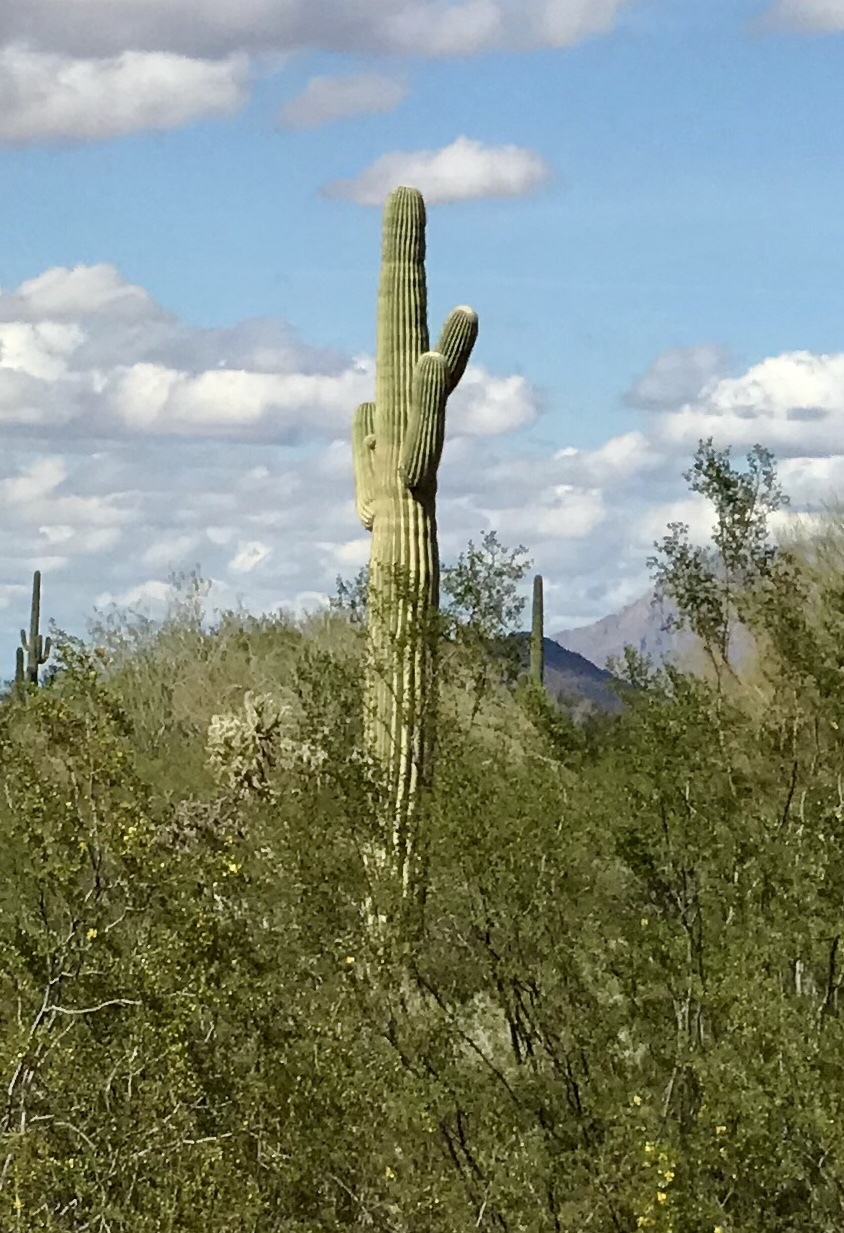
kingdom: Plantae
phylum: Tracheophyta
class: Magnoliopsida
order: Caryophyllales
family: Cactaceae
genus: Carnegiea
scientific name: Carnegiea gigantea
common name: Saguaro
